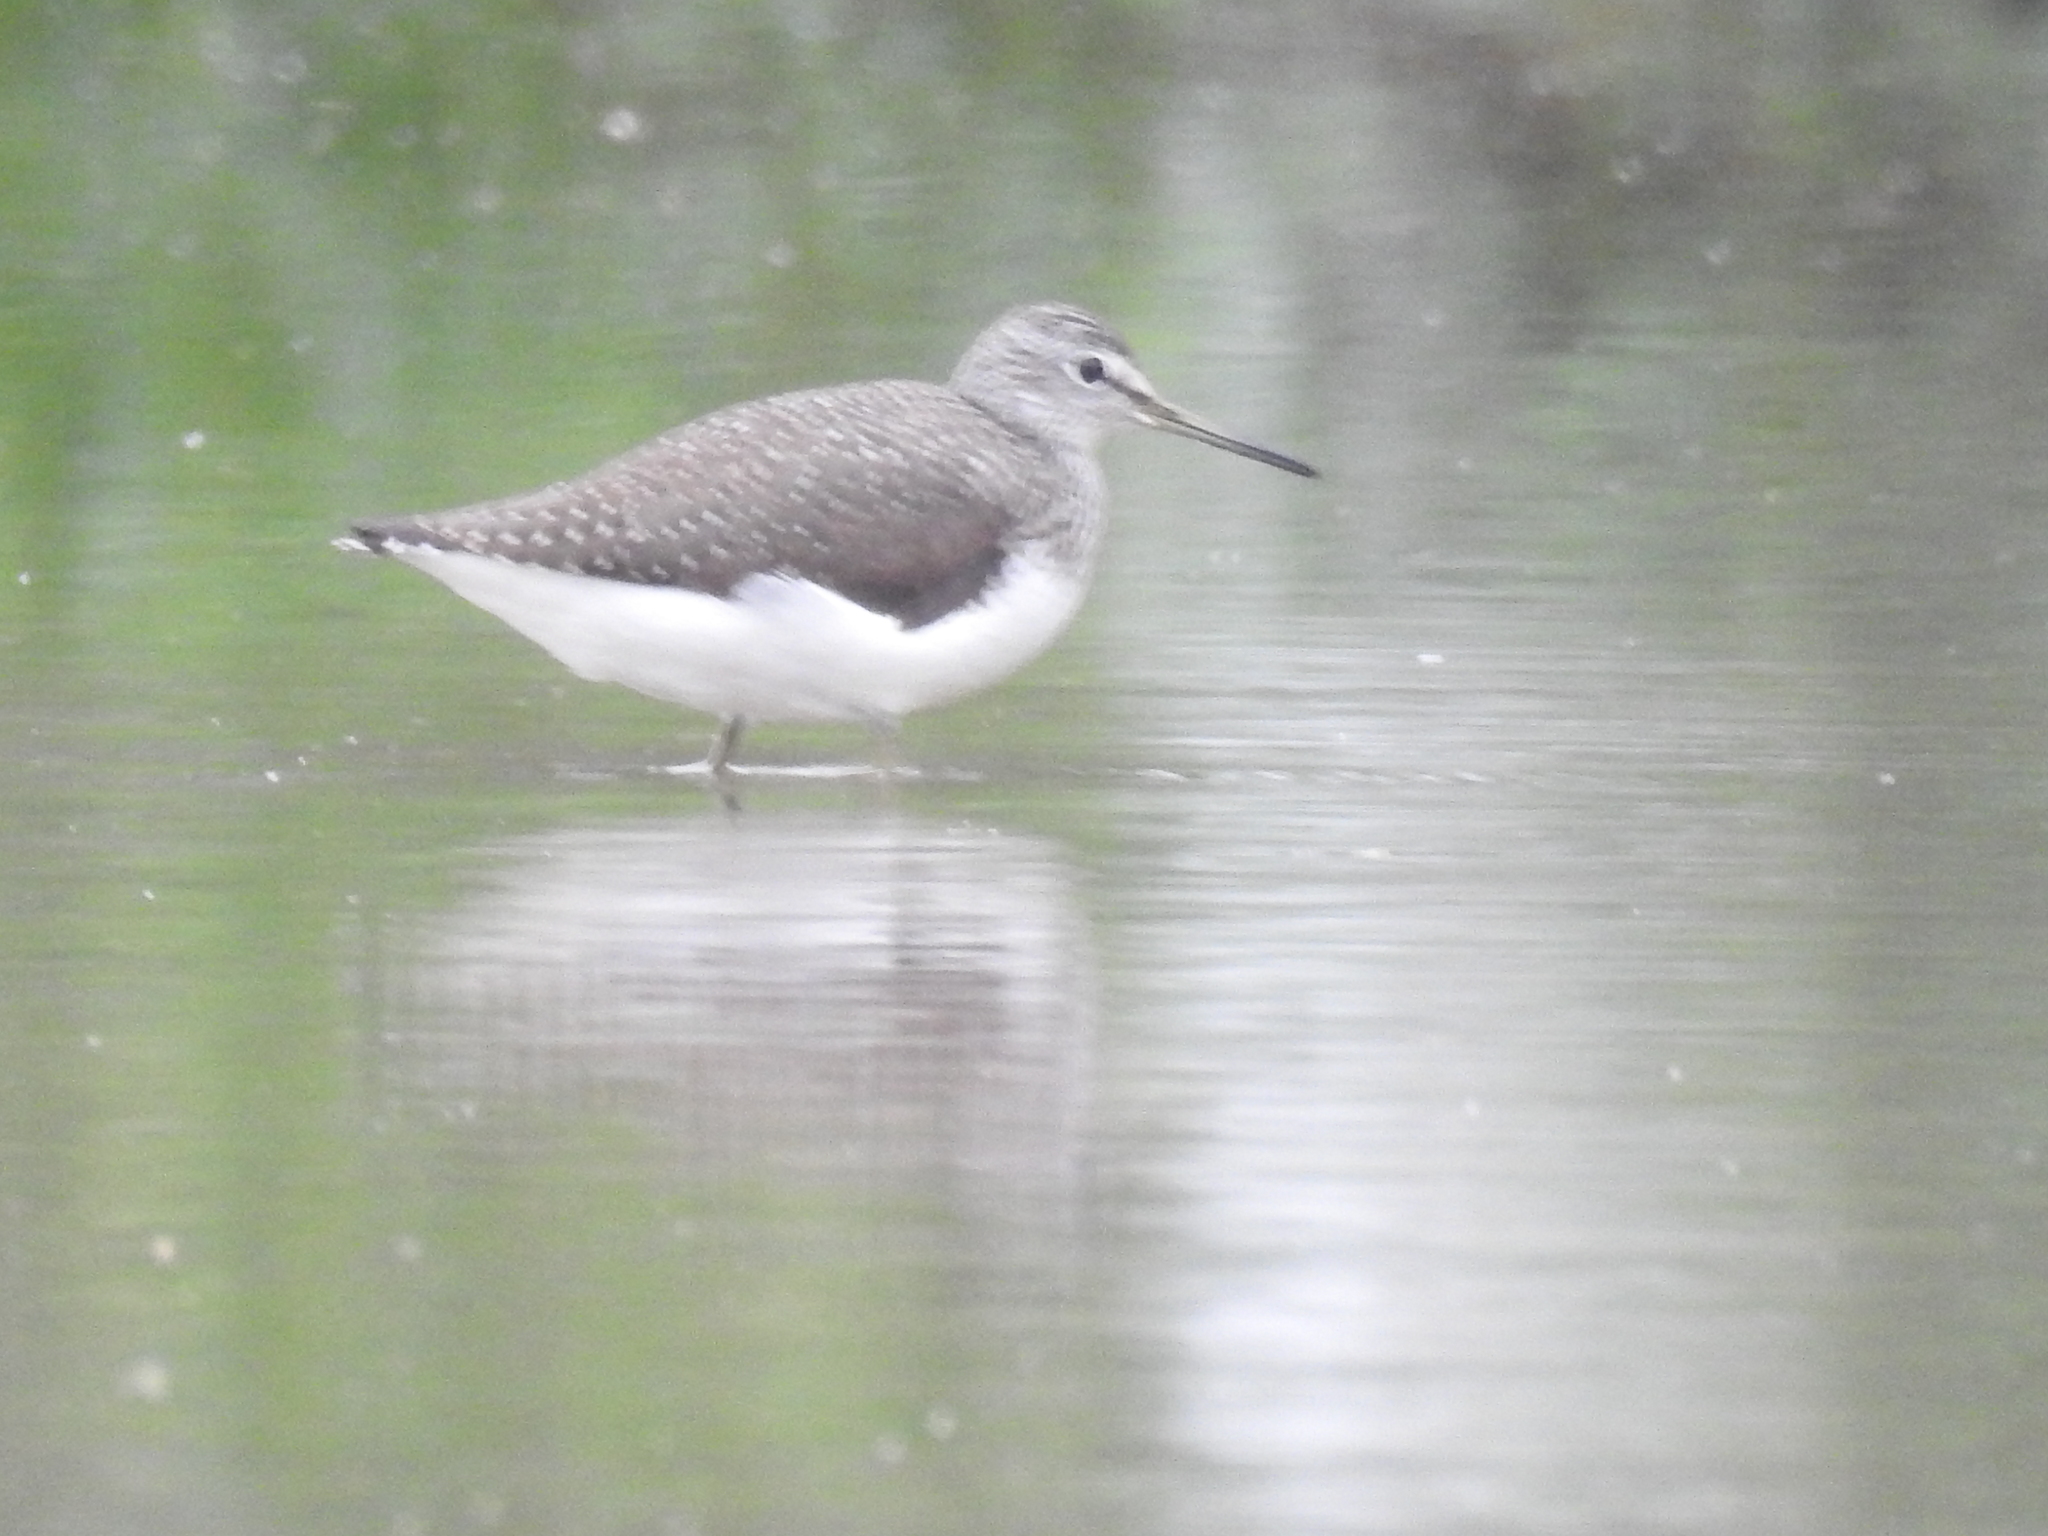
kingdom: Animalia
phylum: Chordata
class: Aves
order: Charadriiformes
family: Scolopacidae
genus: Tringa
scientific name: Tringa ochropus
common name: Green sandpiper
